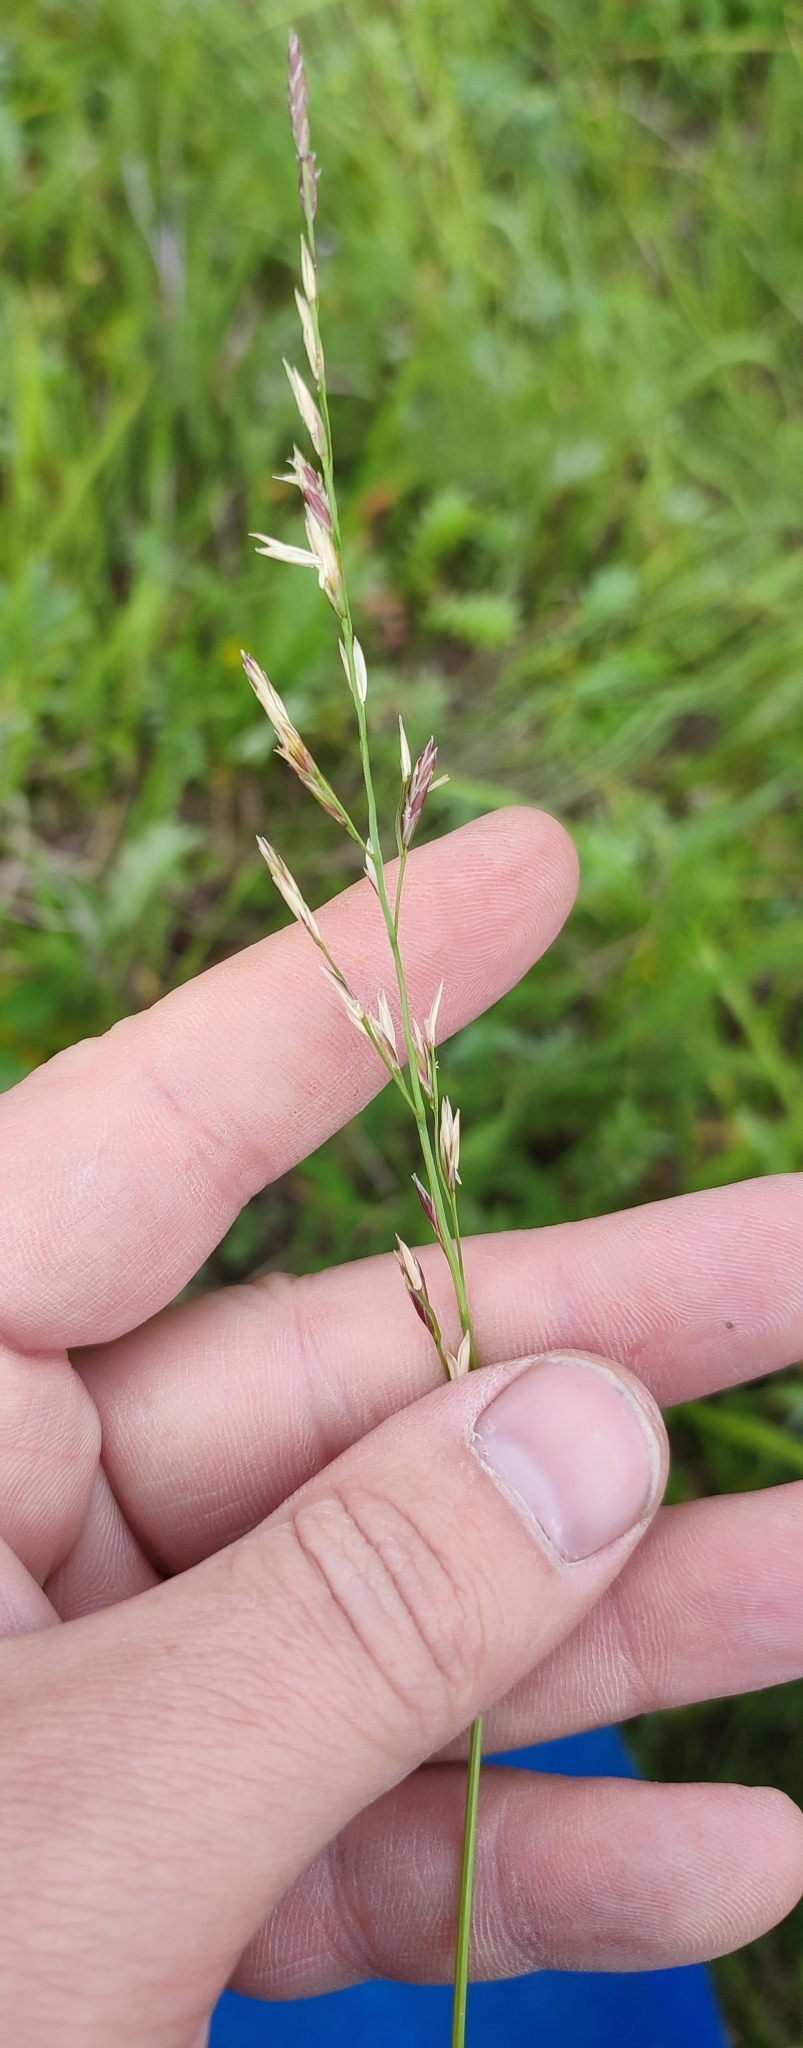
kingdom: Plantae
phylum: Tracheophyta
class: Liliopsida
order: Poales
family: Poaceae
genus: Lolium
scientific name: Lolium pratense
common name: Dover grass
